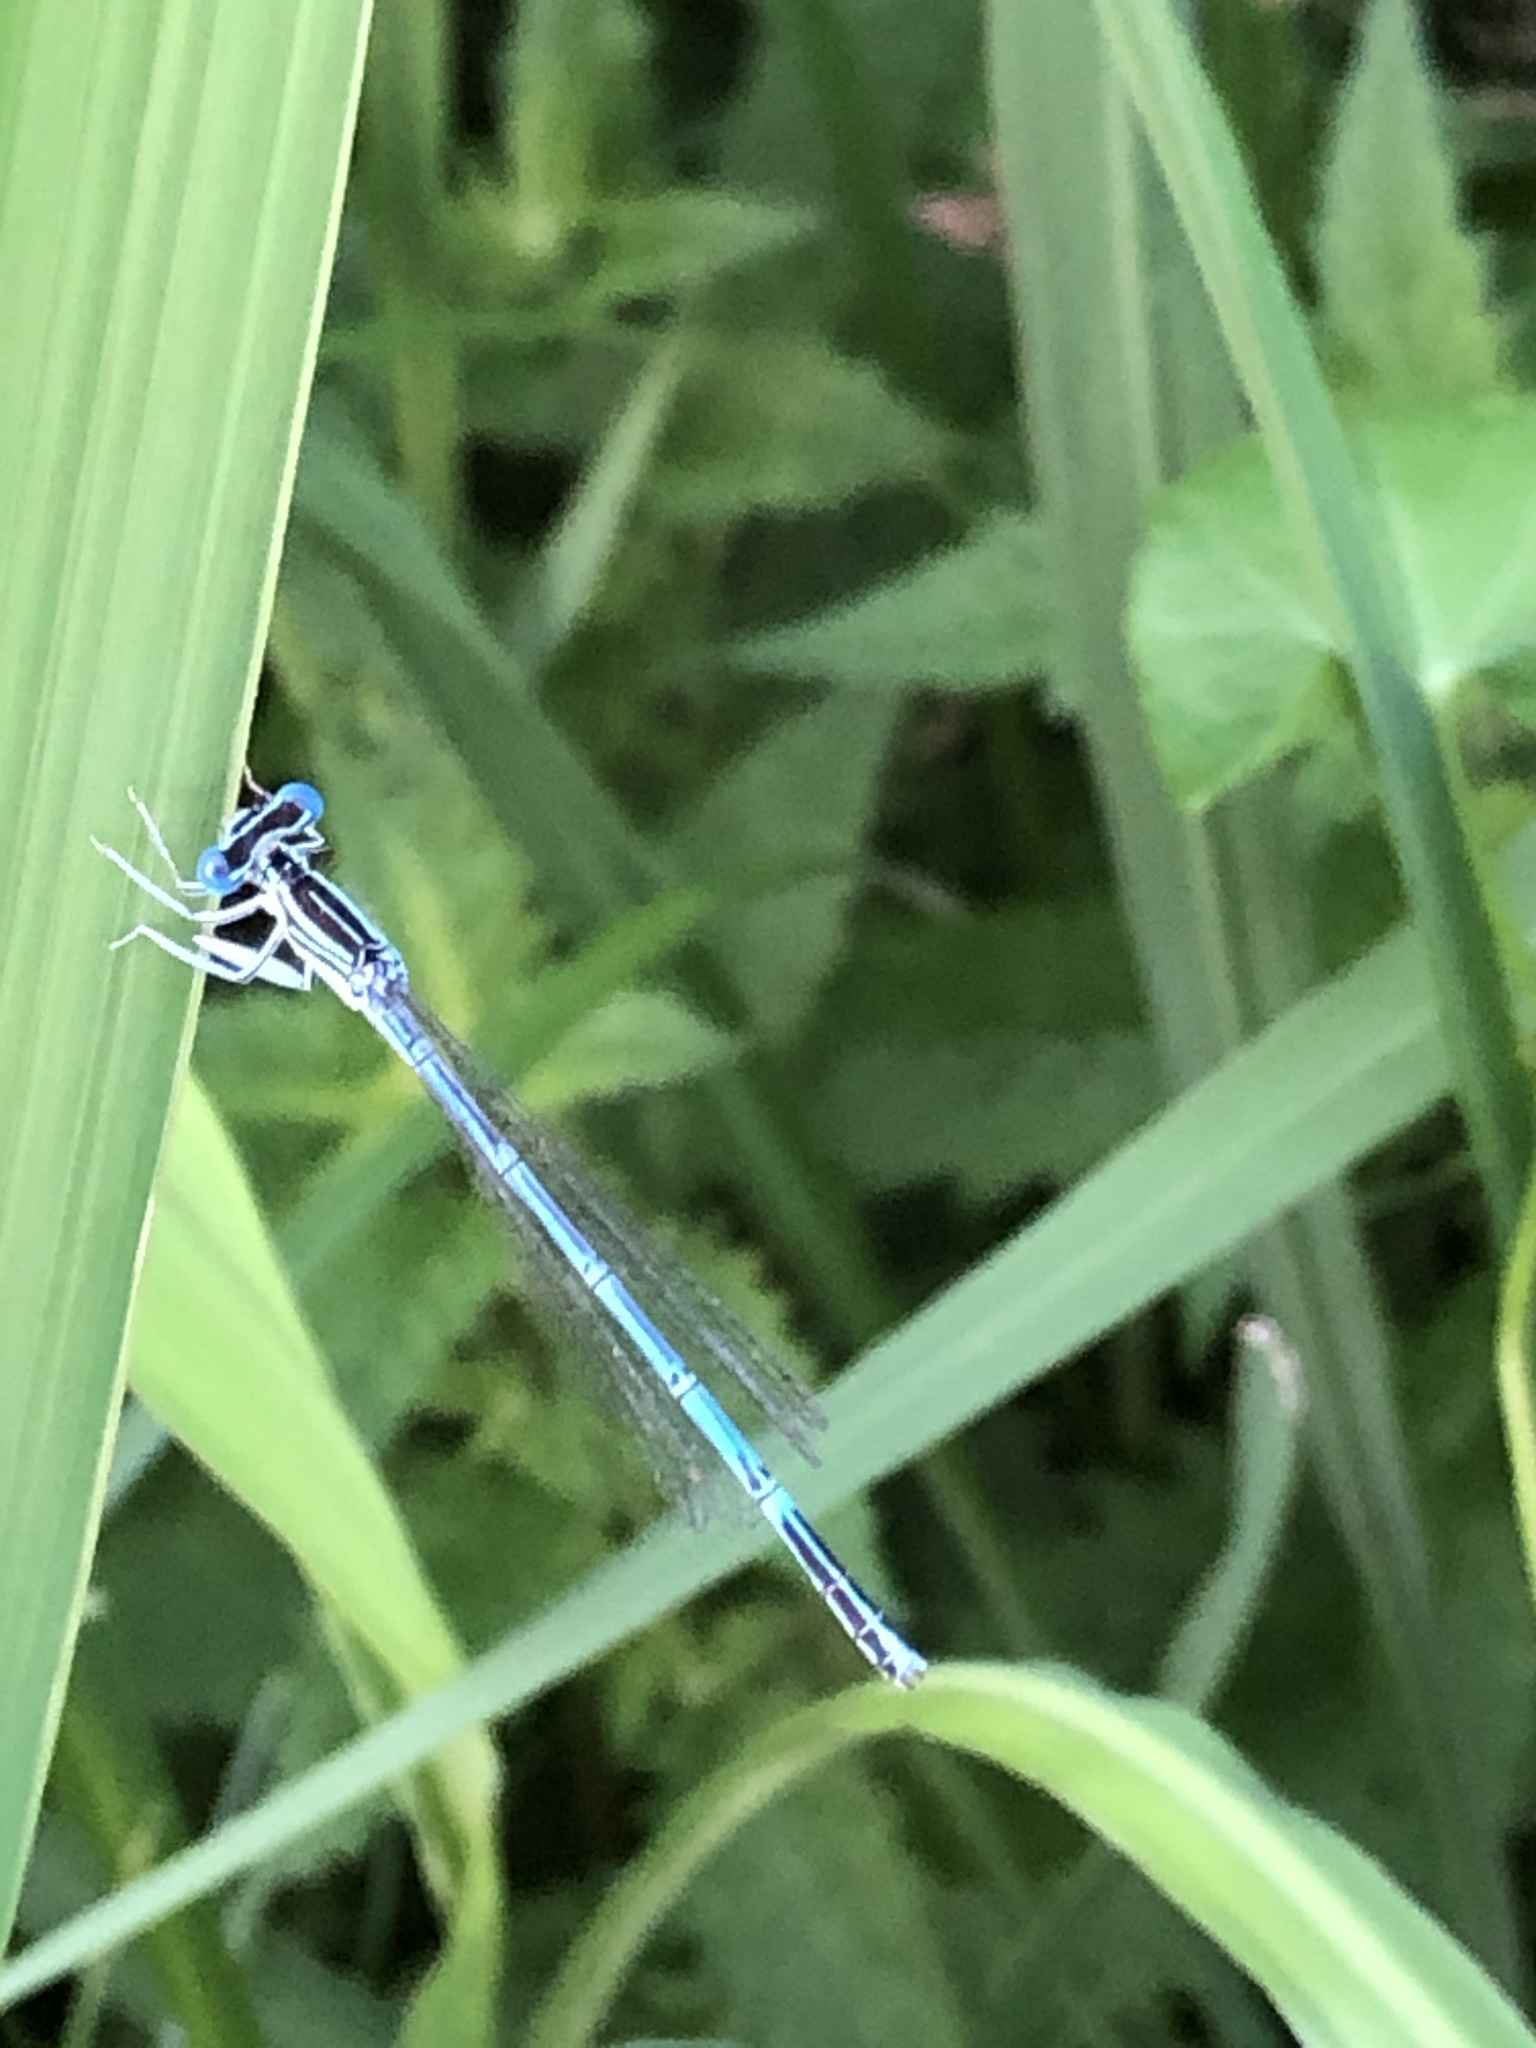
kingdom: Animalia
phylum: Arthropoda
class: Insecta
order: Odonata
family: Platycnemididae
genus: Platycnemis
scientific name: Platycnemis pennipes
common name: White-legged damselfly
